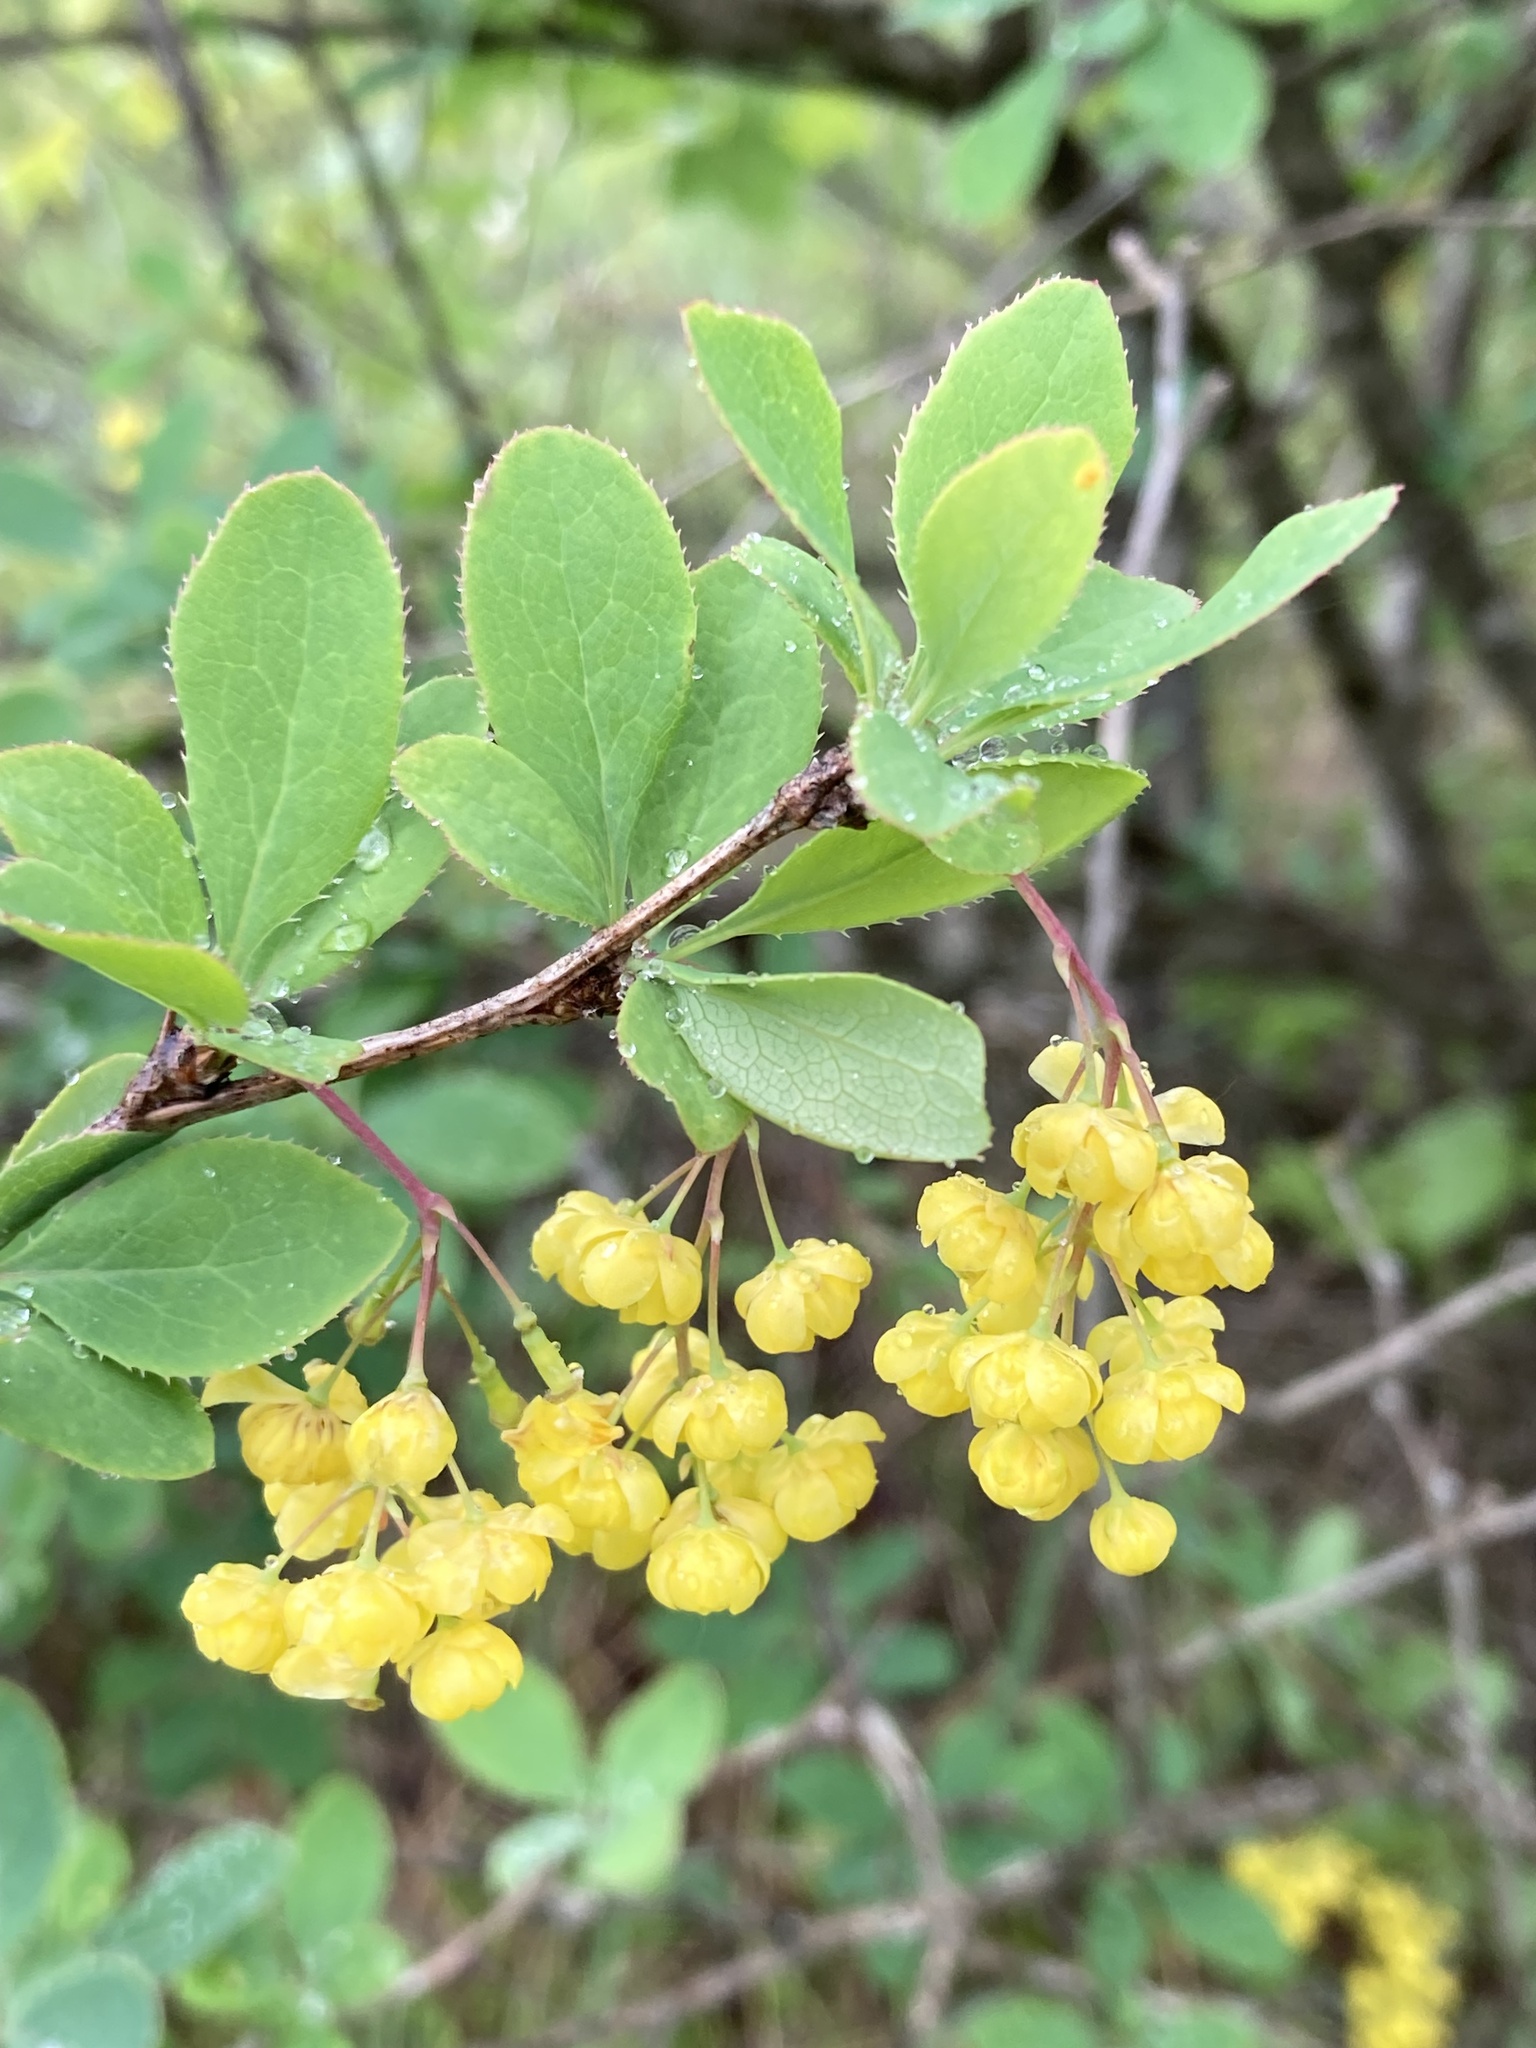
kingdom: Plantae
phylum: Tracheophyta
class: Magnoliopsida
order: Ranunculales
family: Berberidaceae
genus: Berberis
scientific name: Berberis vulgaris
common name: Barberry
